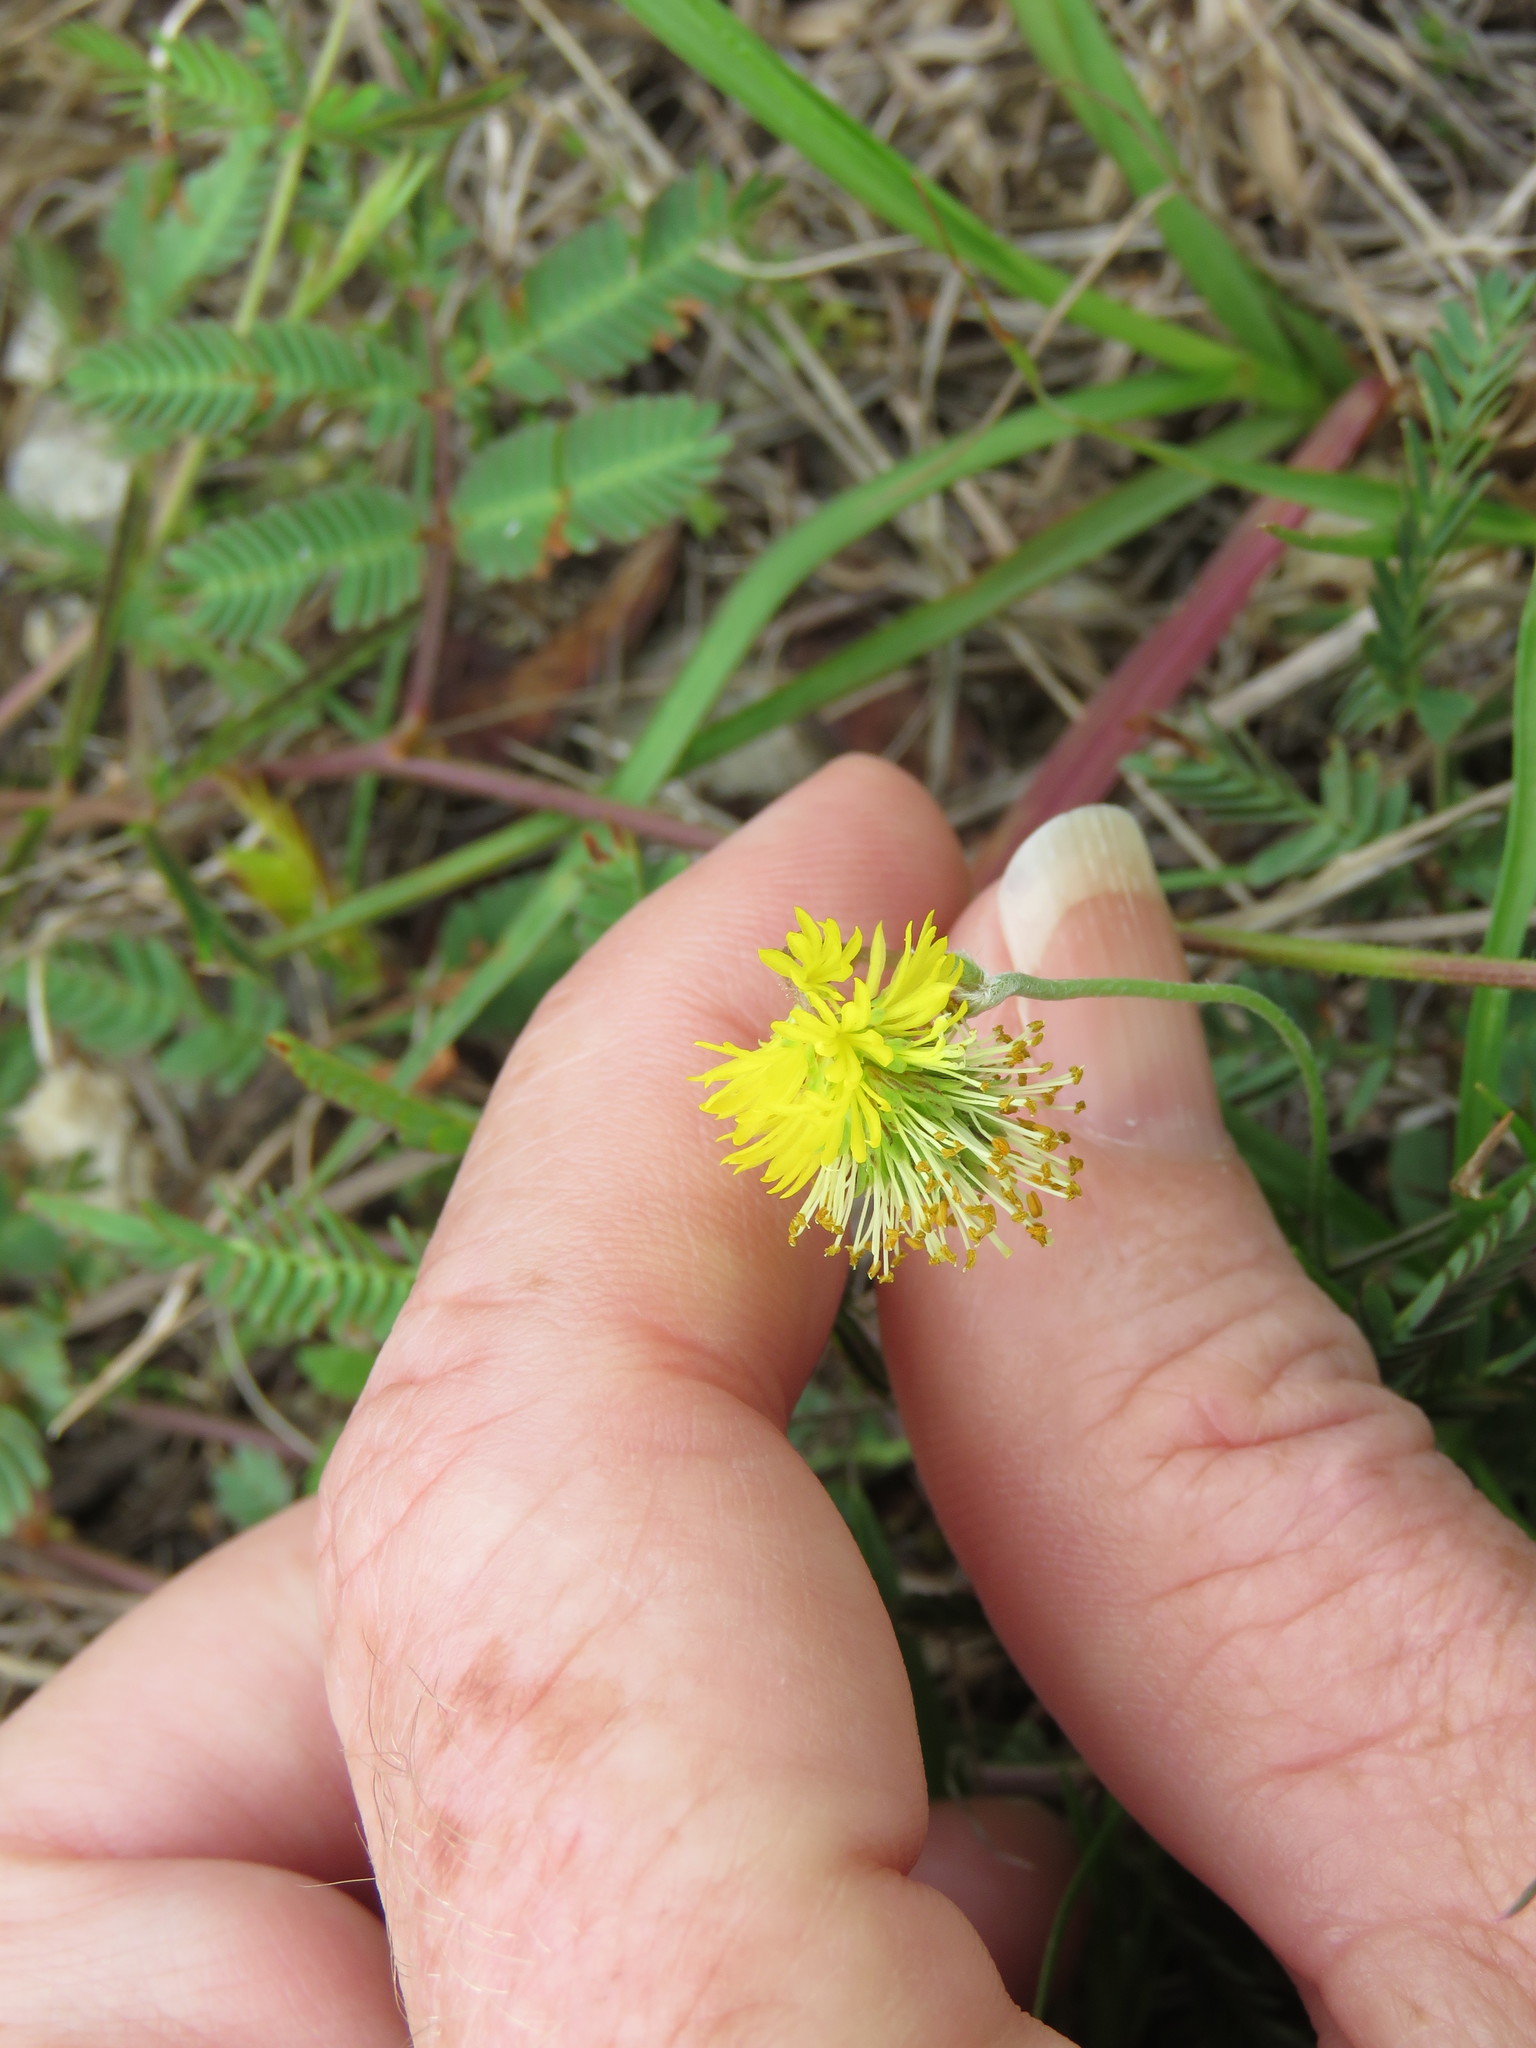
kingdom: Plantae
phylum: Tracheophyta
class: Magnoliopsida
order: Fabales
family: Fabaceae
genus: Neptunia
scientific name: Neptunia pubescens
